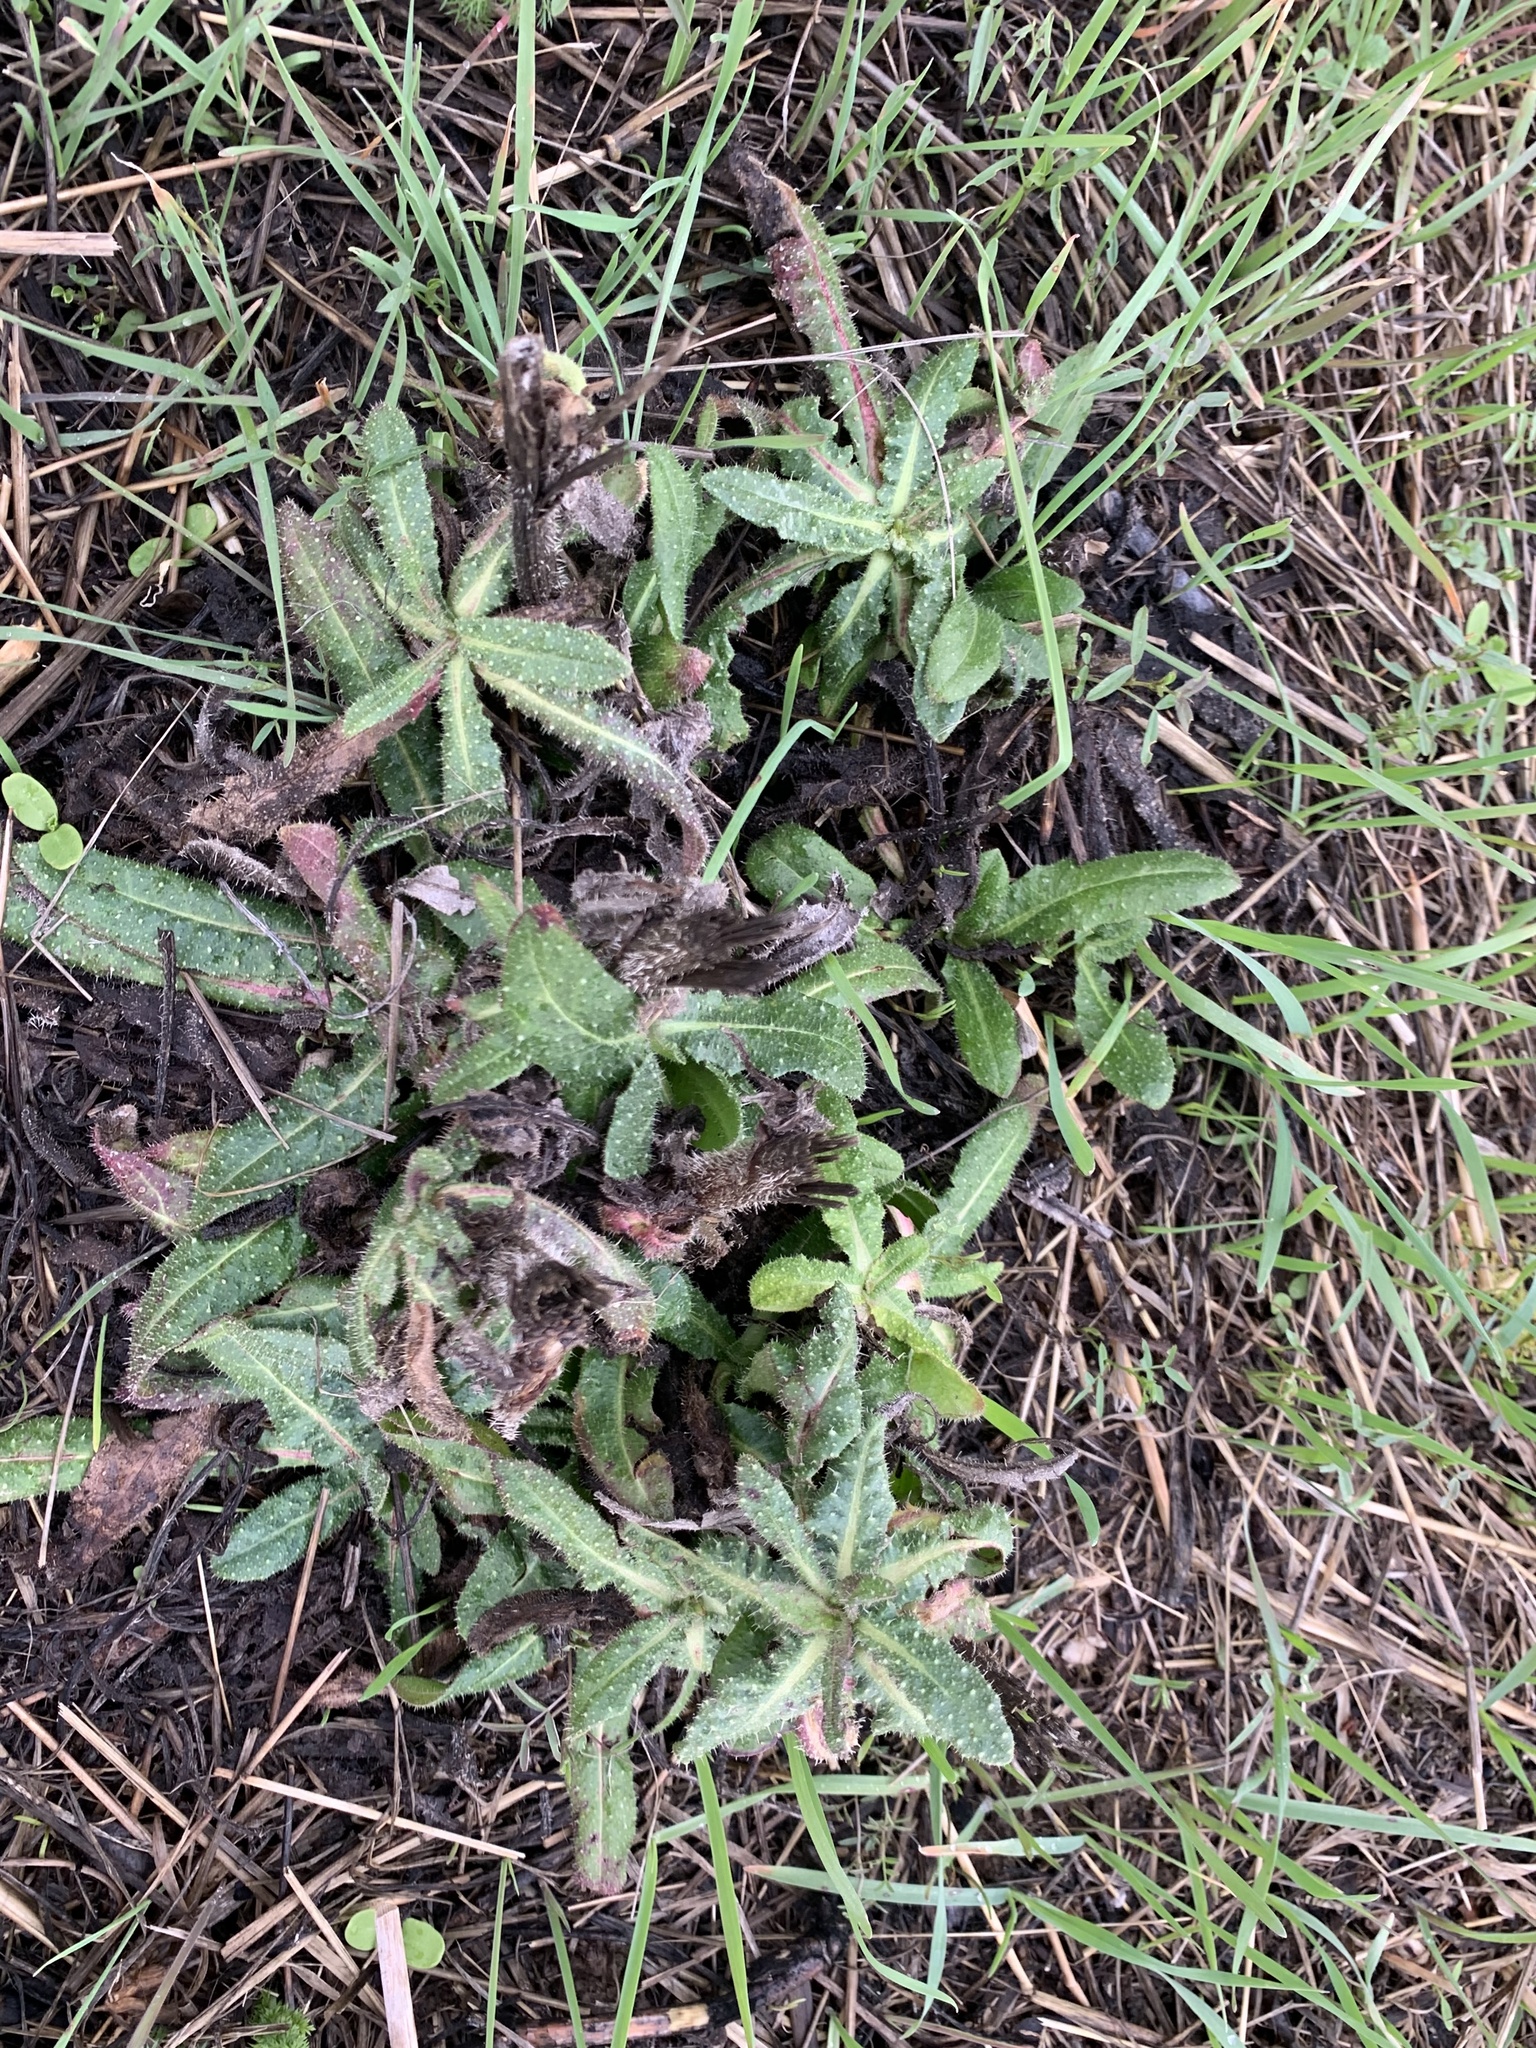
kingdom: Plantae
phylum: Tracheophyta
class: Magnoliopsida
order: Asterales
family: Asteraceae
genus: Helminthotheca
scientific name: Helminthotheca echioides
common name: Ox-tongue
